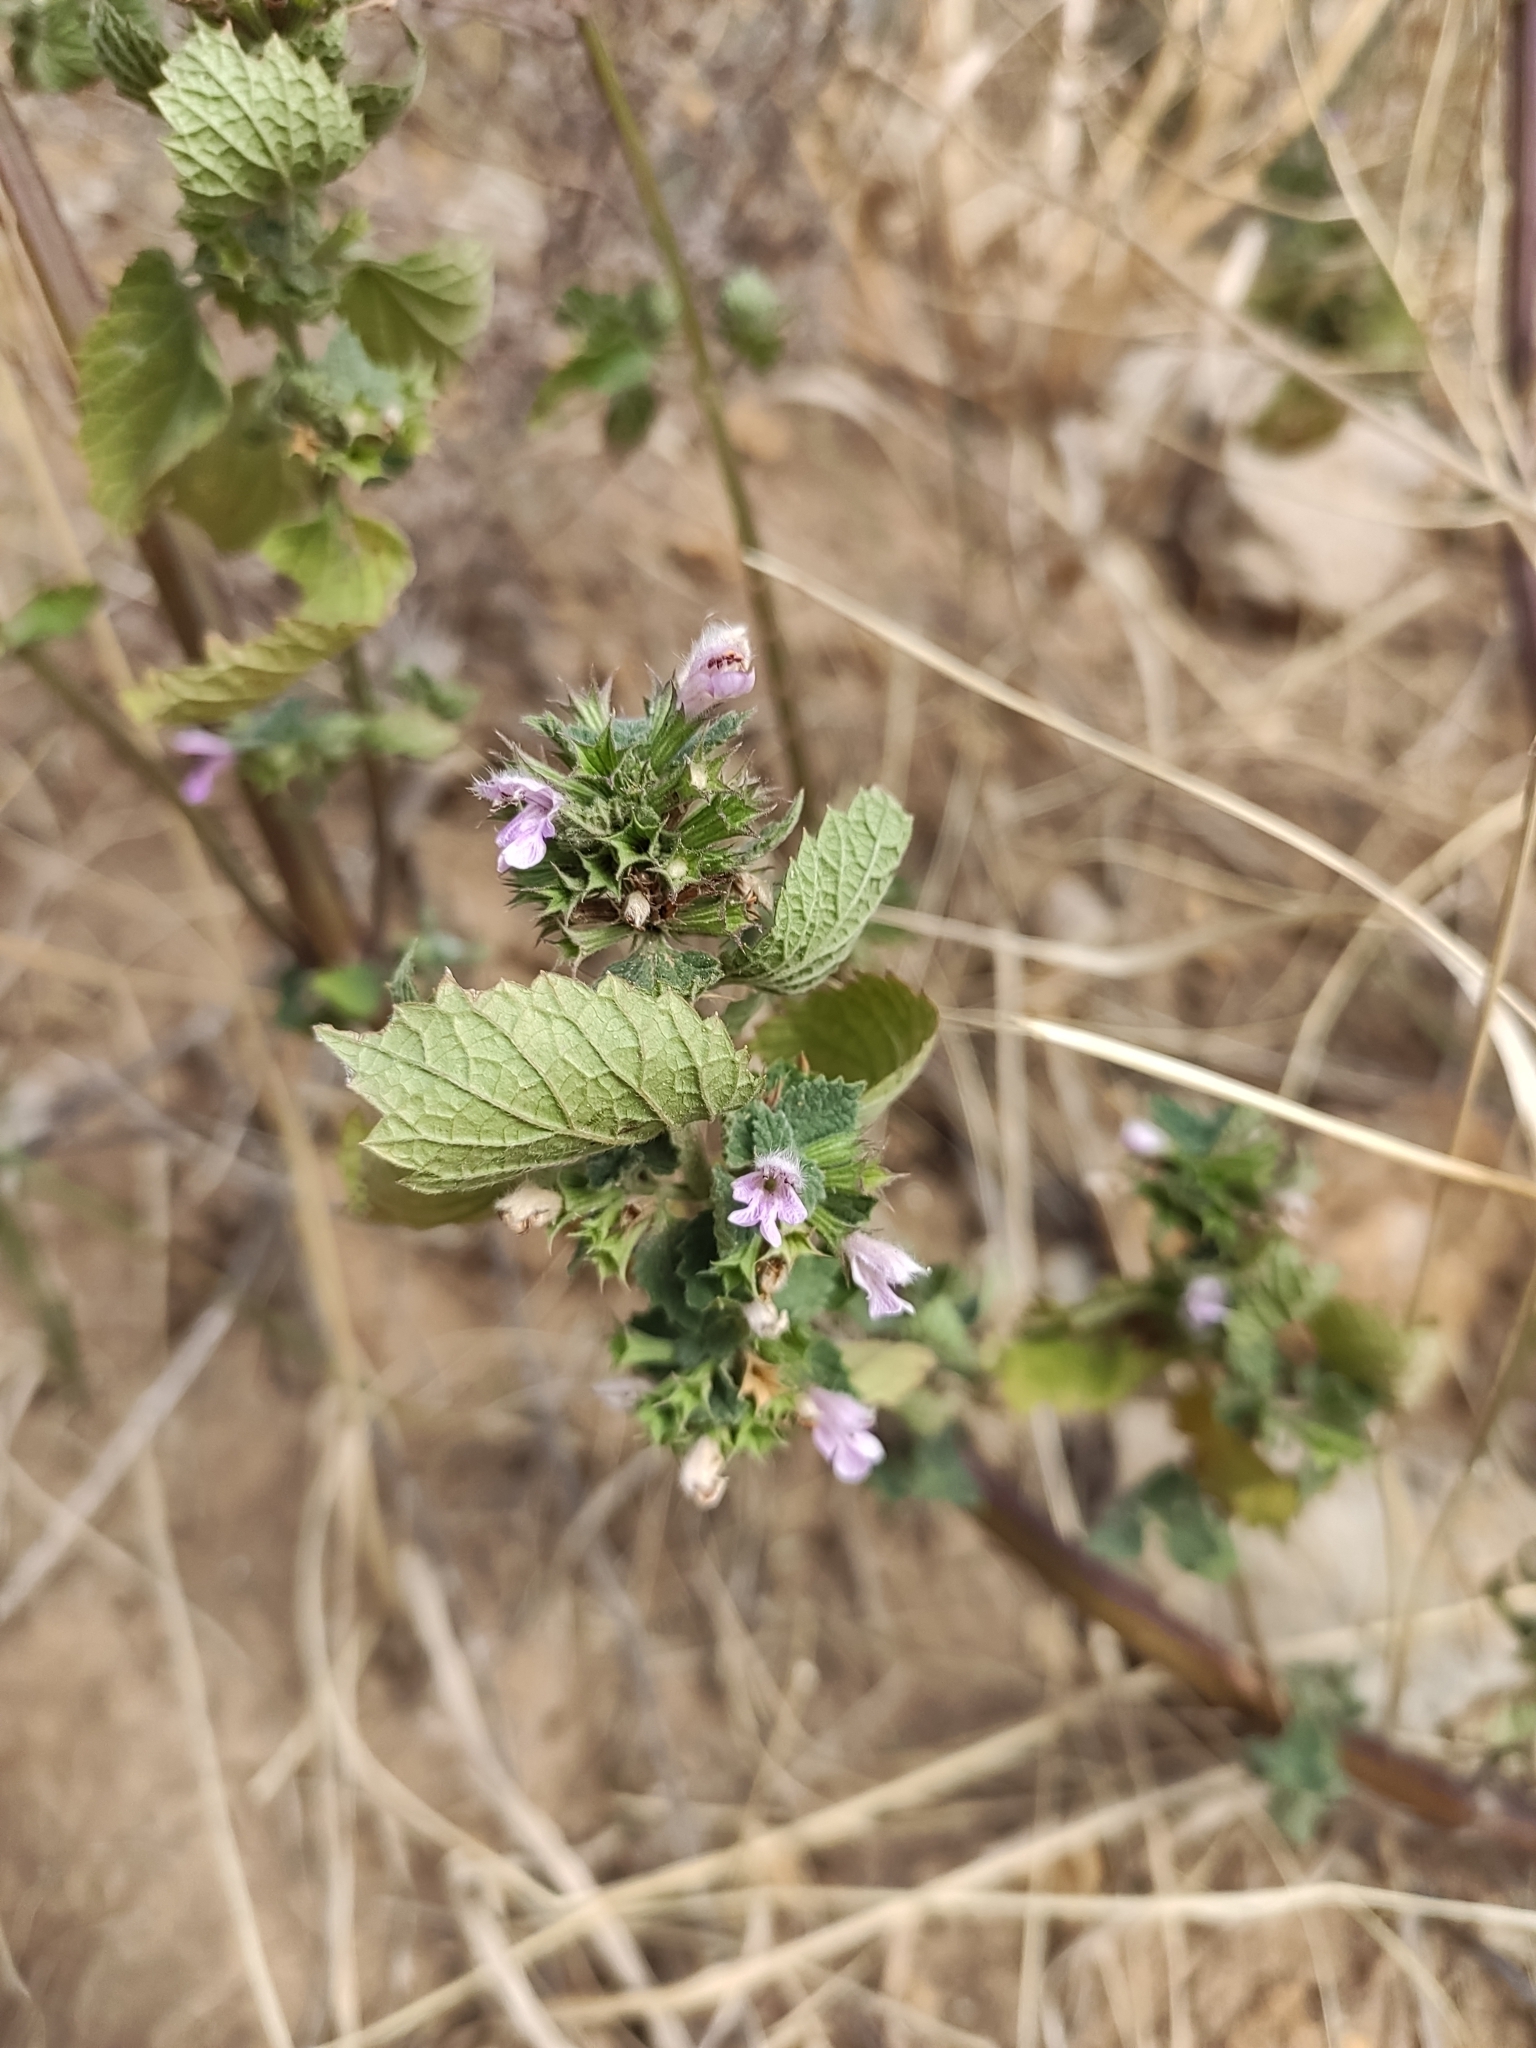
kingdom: Plantae
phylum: Tracheophyta
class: Magnoliopsida
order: Lamiales
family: Lamiaceae
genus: Ballota
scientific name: Ballota nigra
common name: Black horehound
